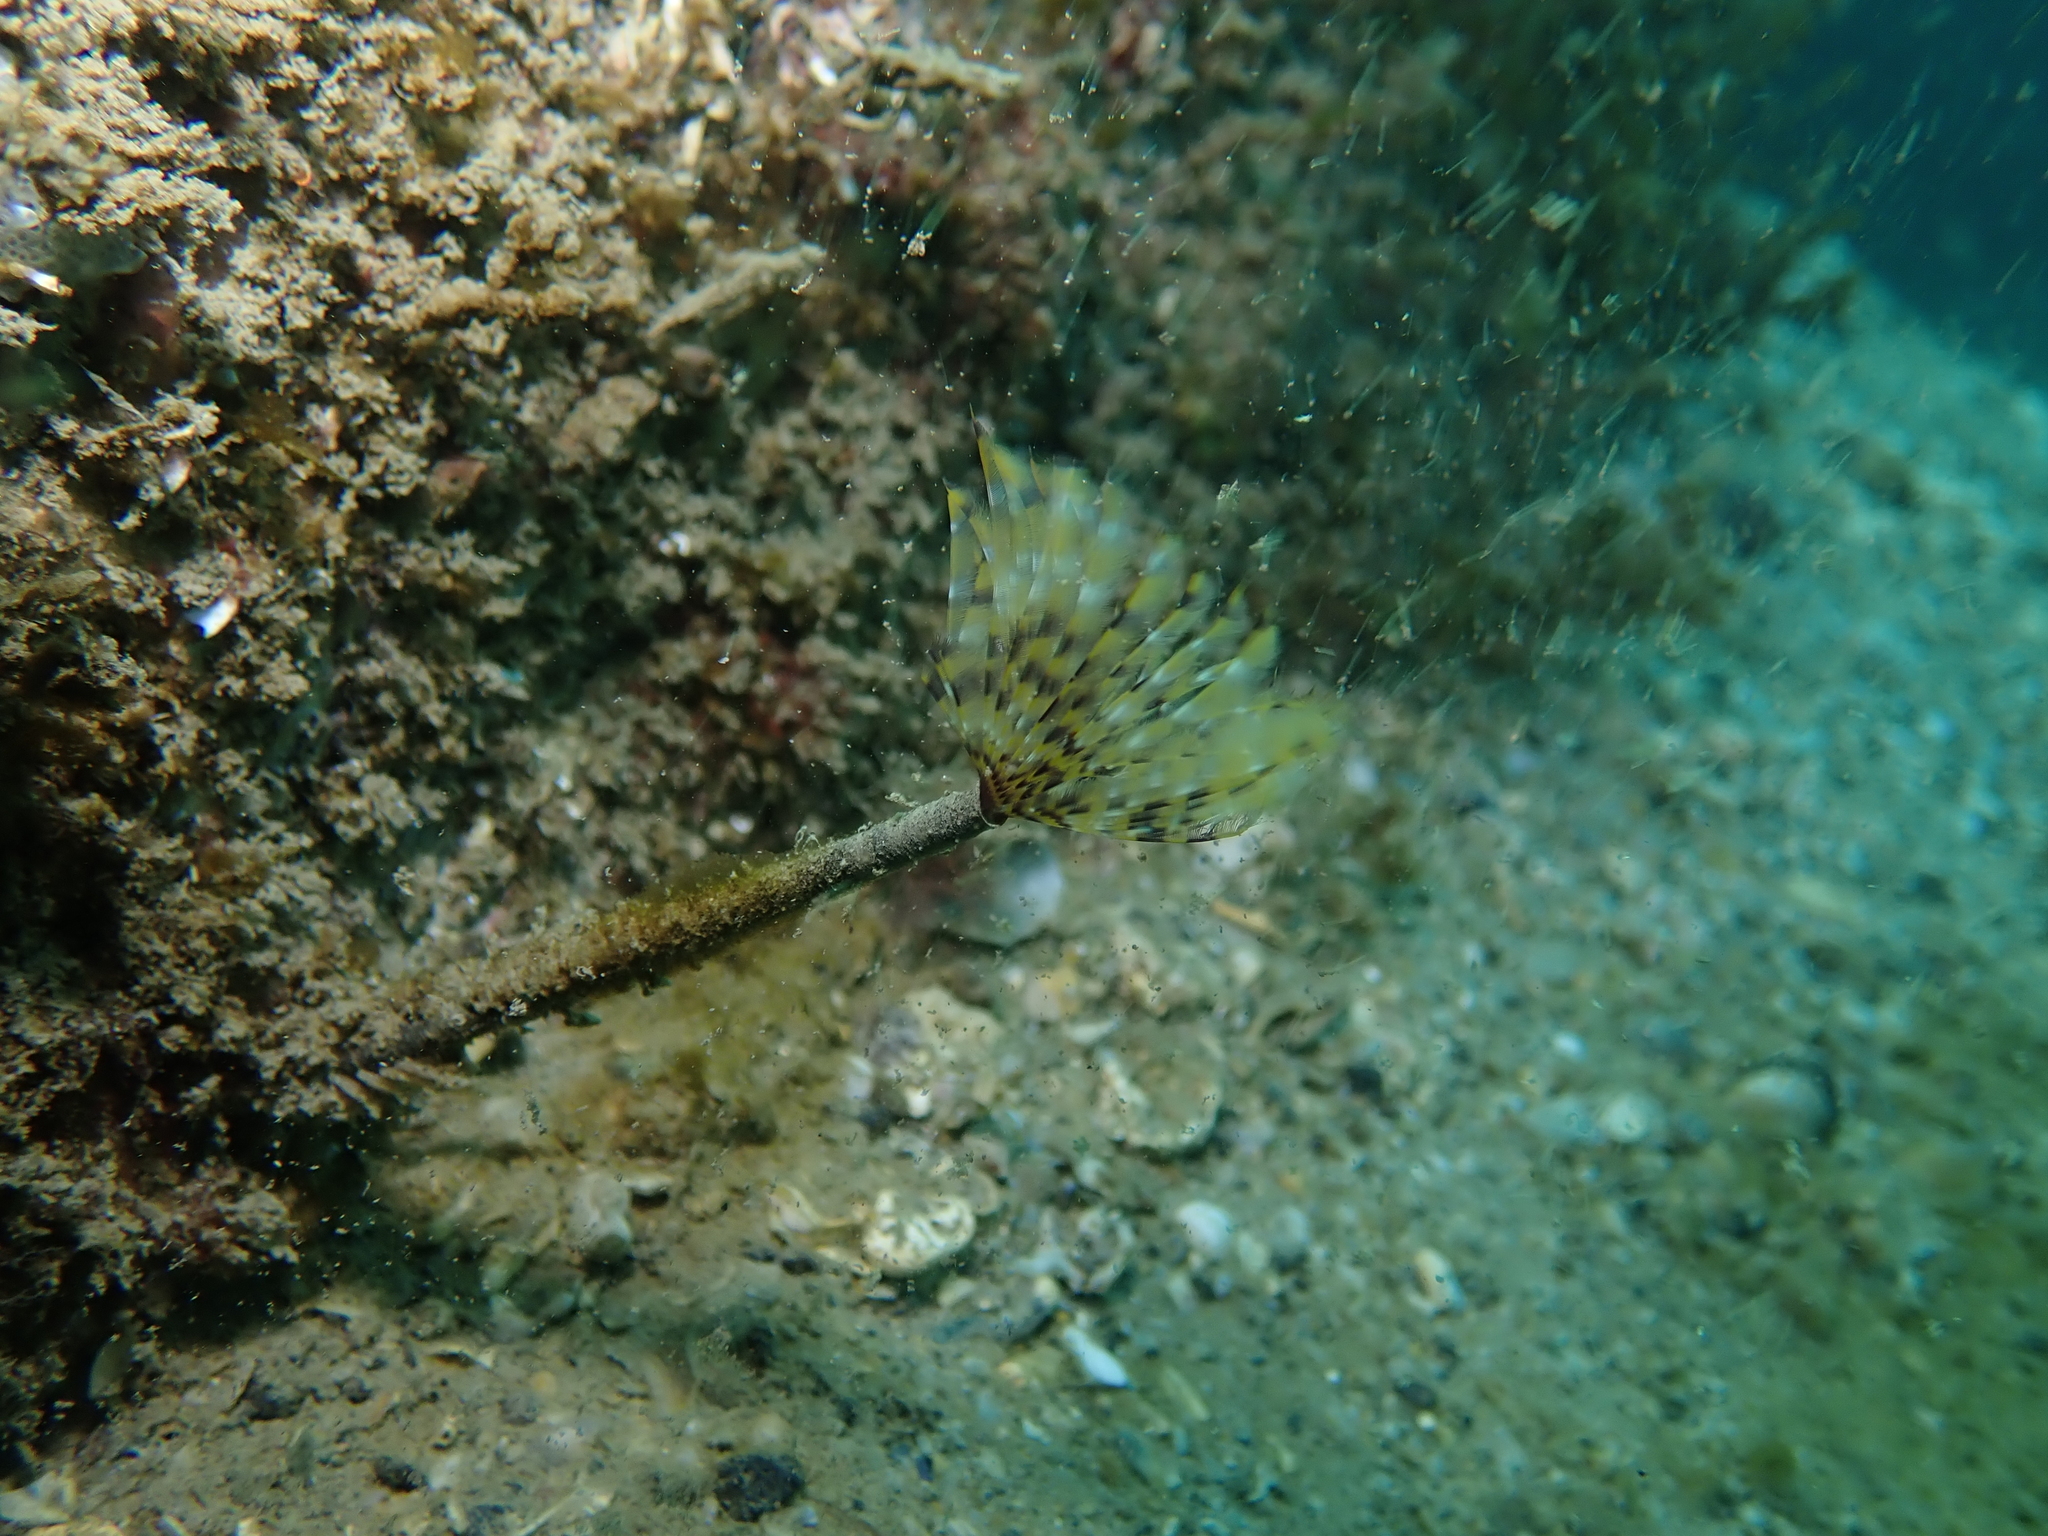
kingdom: Animalia
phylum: Annelida
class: Polychaeta
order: Sabellida
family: Sabellidae
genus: Sabella
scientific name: Sabella spallanzanii
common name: Feather duster worm
